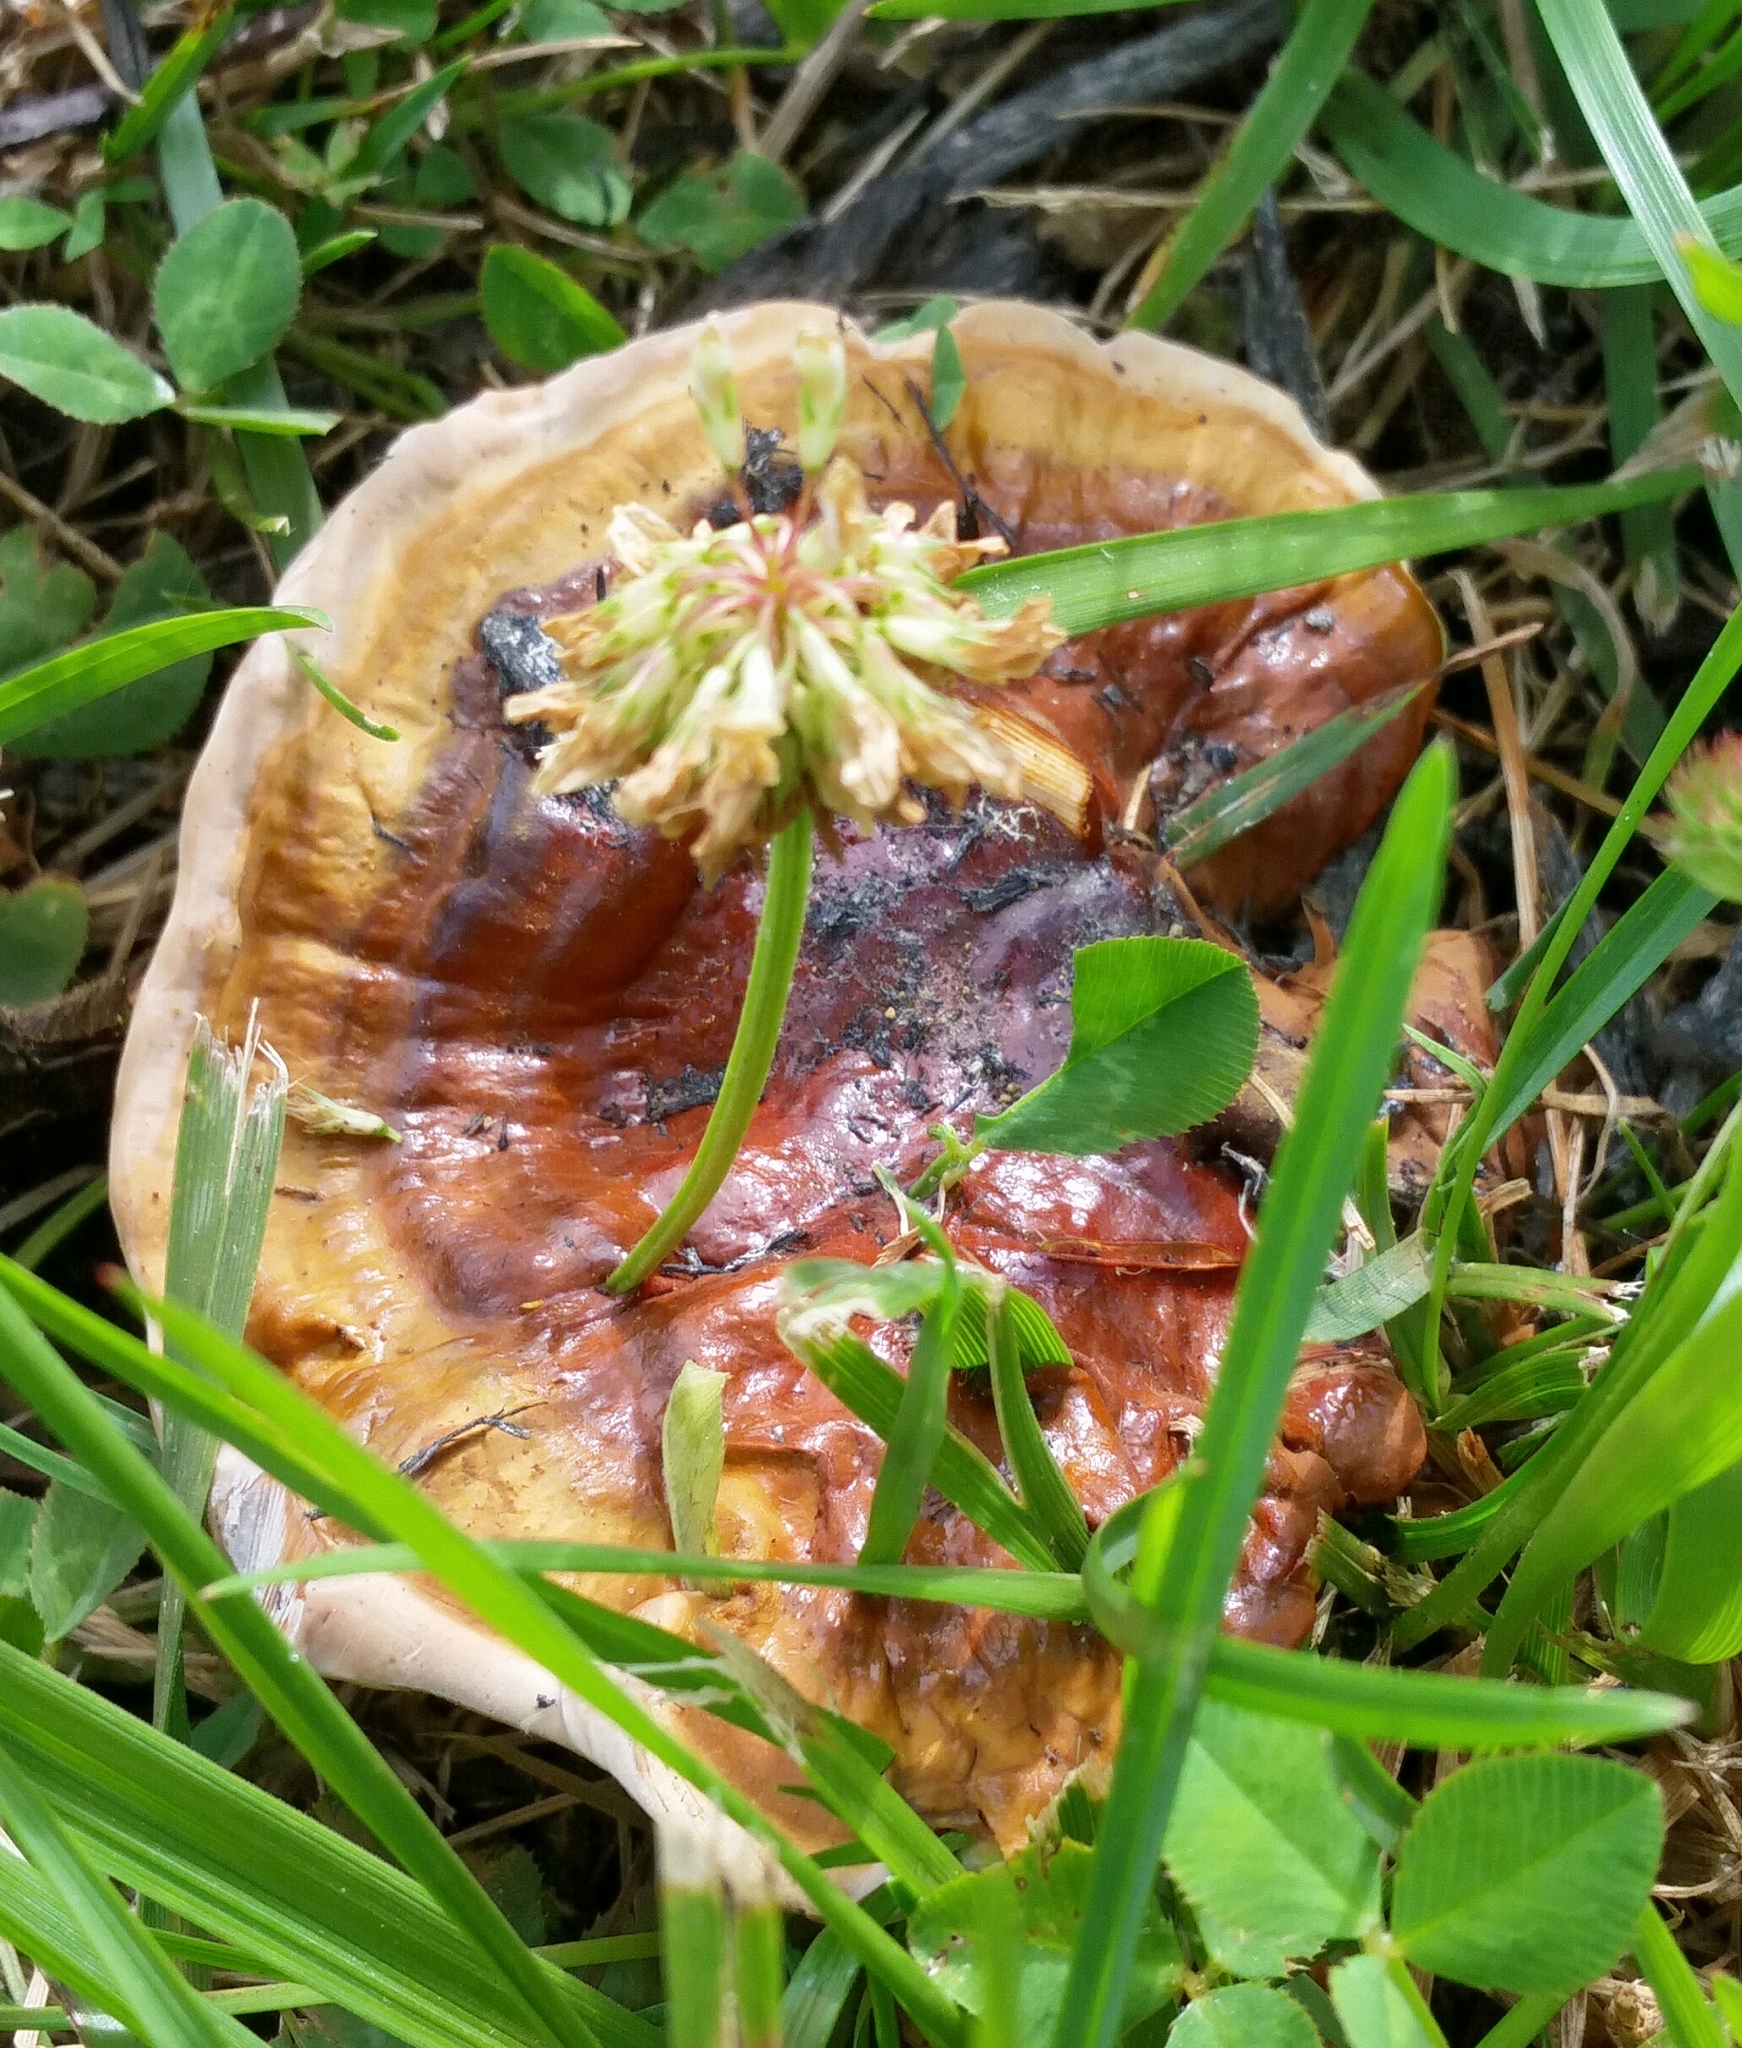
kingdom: Fungi
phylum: Basidiomycota
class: Agaricomycetes
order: Polyporales
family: Polyporaceae
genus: Ganoderma
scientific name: Ganoderma resinaceum
